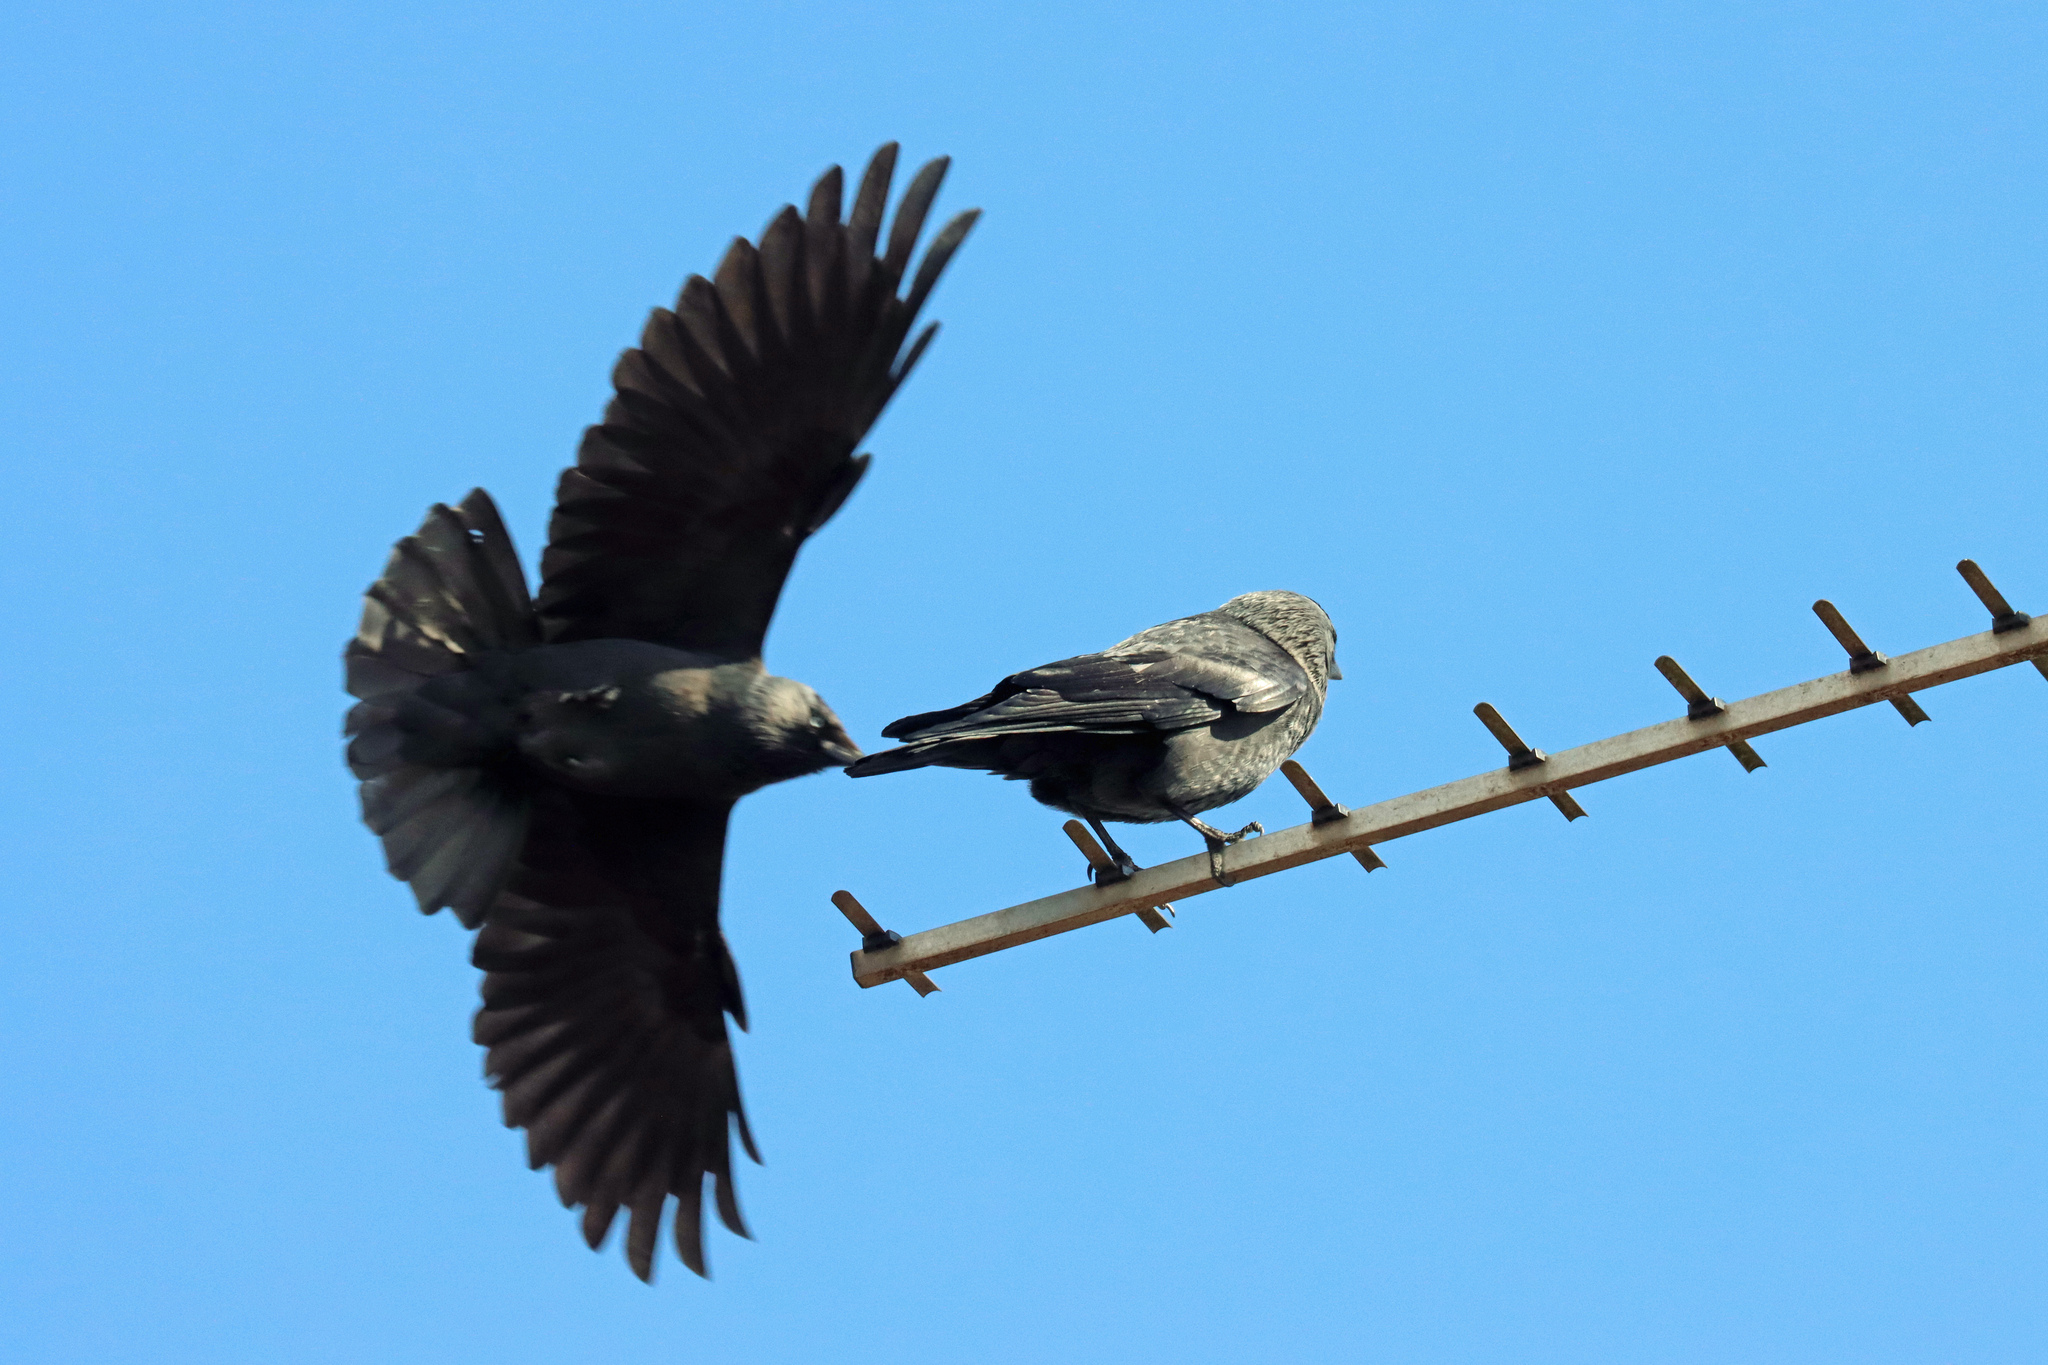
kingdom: Animalia
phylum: Chordata
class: Aves
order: Passeriformes
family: Corvidae
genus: Coloeus
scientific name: Coloeus monedula
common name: Western jackdaw
